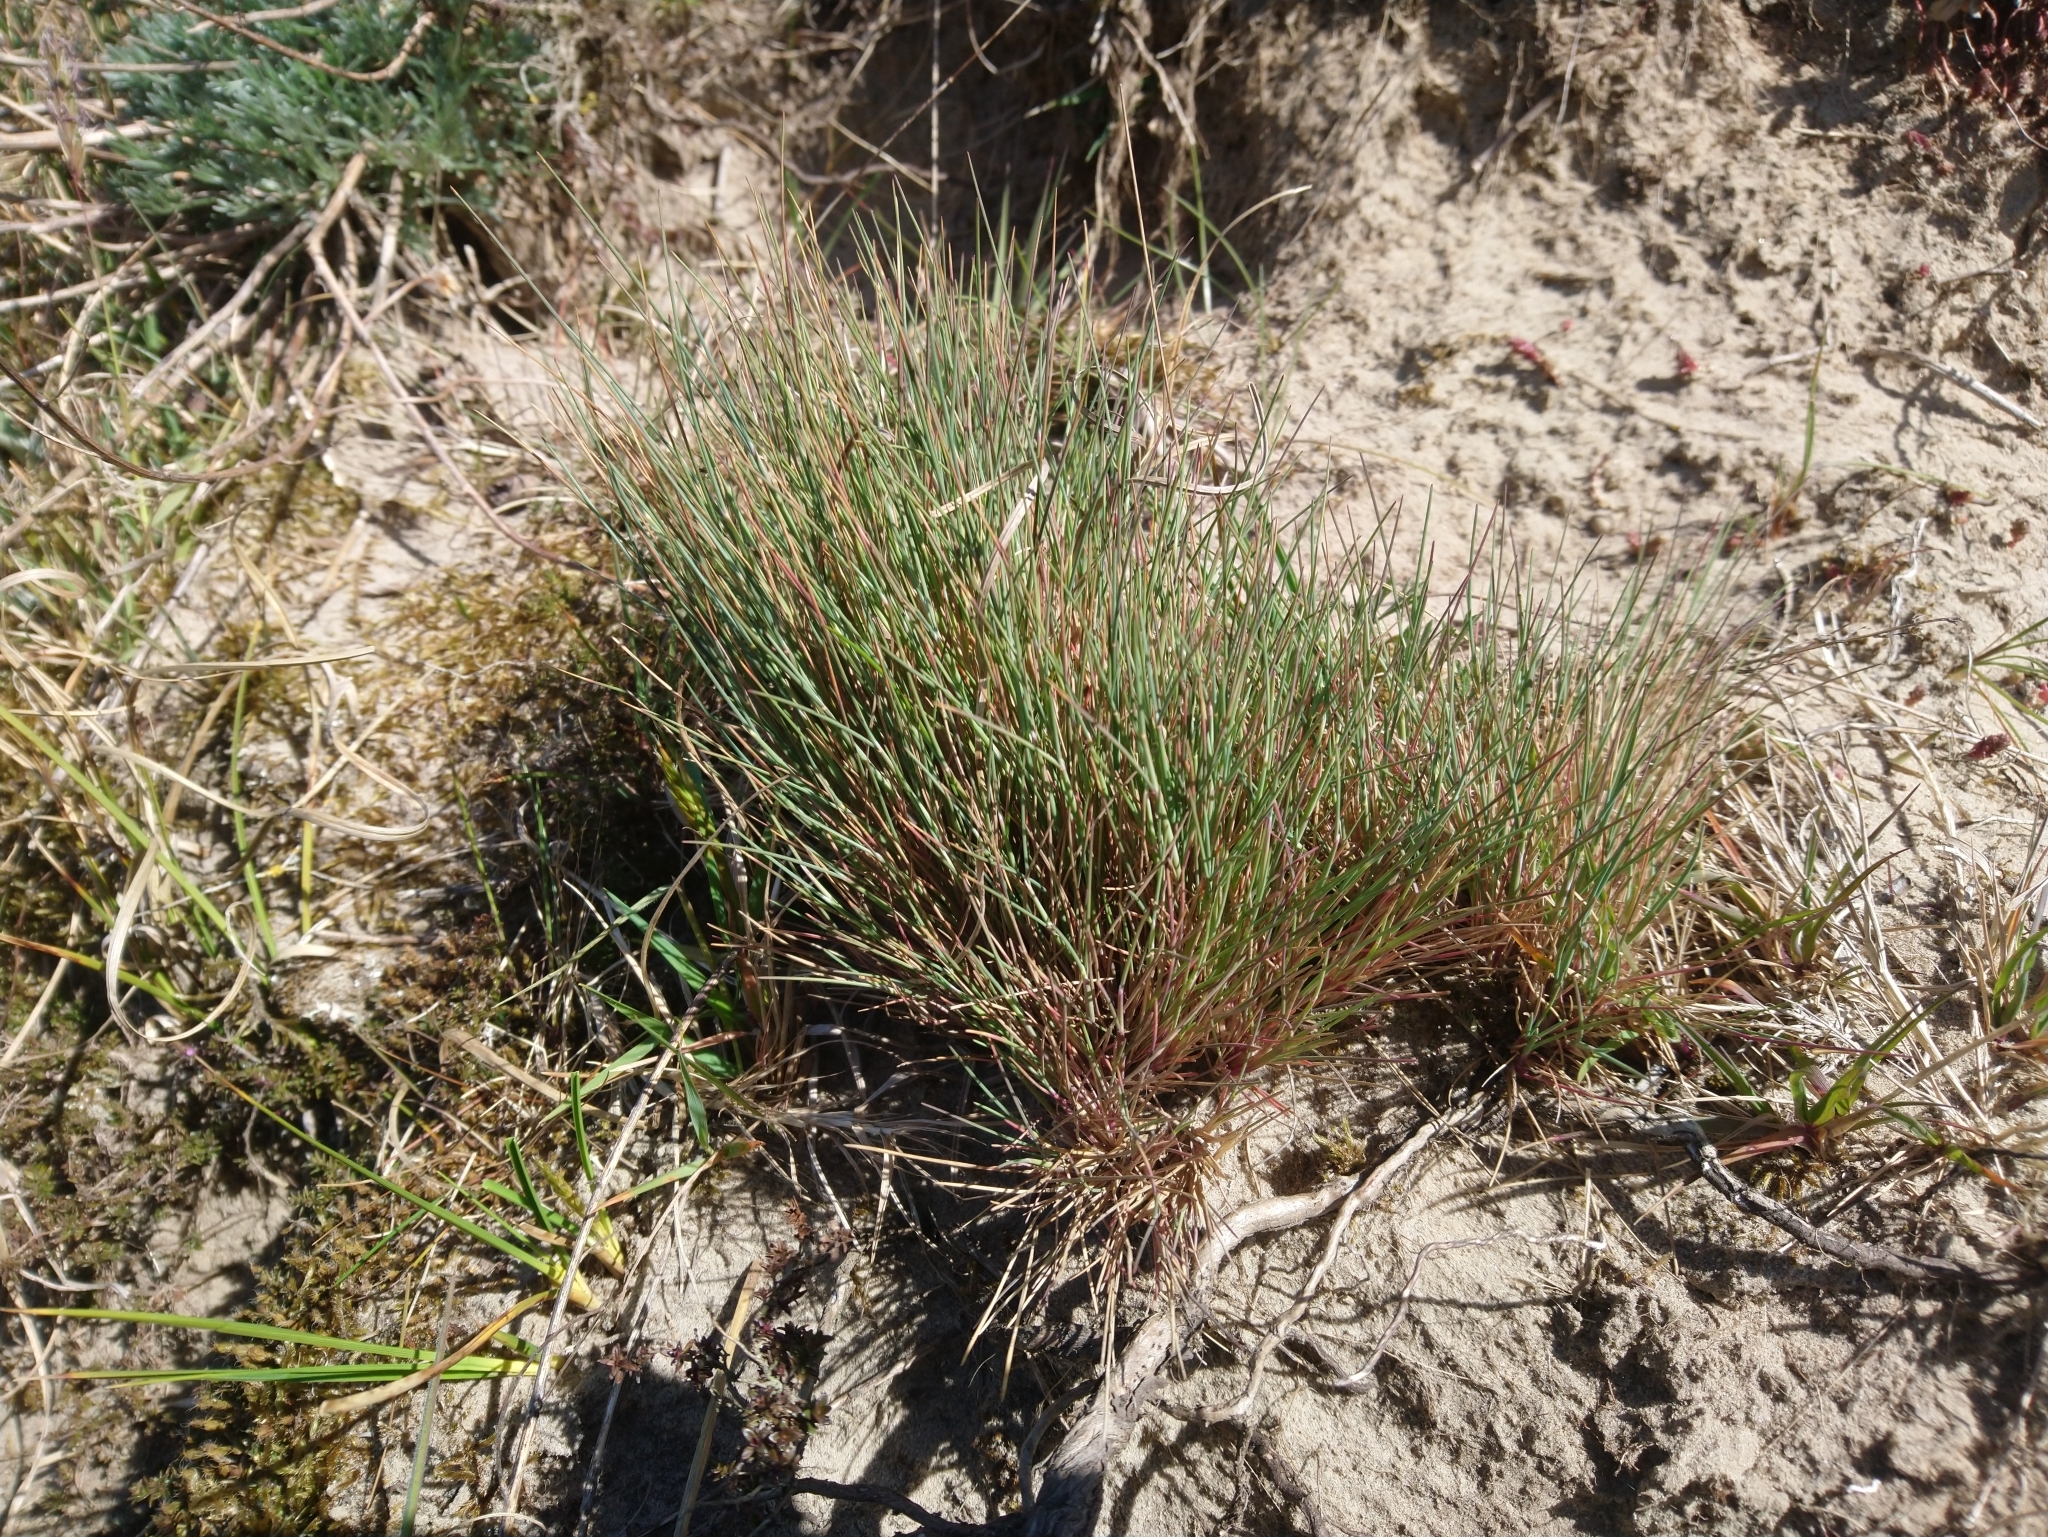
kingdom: Plantae
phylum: Tracheophyta
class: Liliopsida
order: Poales
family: Poaceae
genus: Corynephorus
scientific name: Corynephorus canescens
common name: Grey hair-grass
